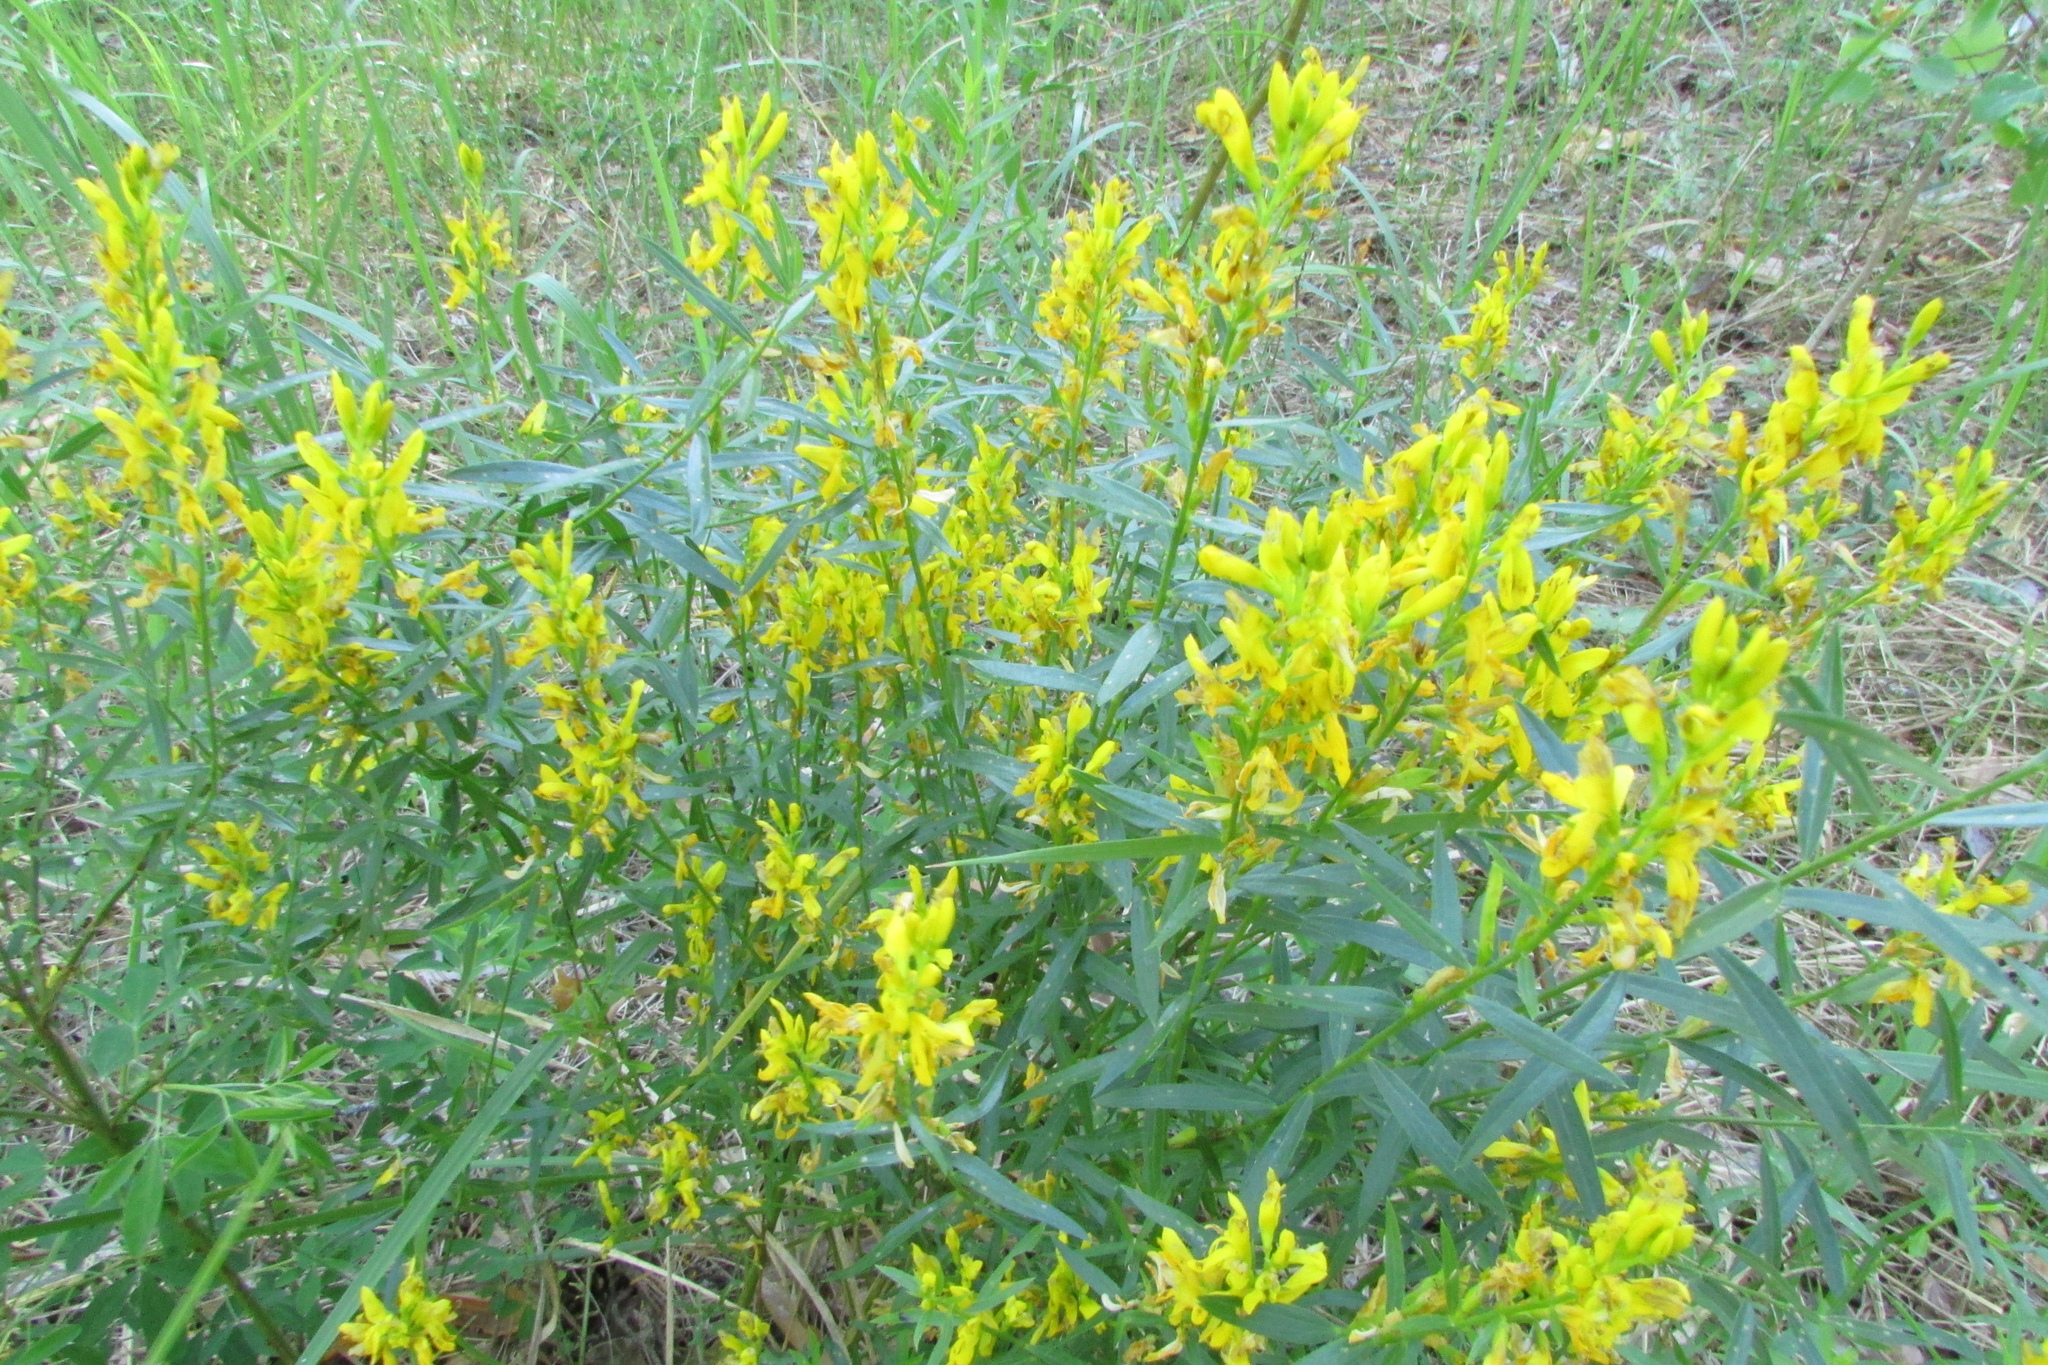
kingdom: Plantae
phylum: Tracheophyta
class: Magnoliopsida
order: Fabales
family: Fabaceae
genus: Genista
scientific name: Genista tinctoria
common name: Dyer's greenweed
